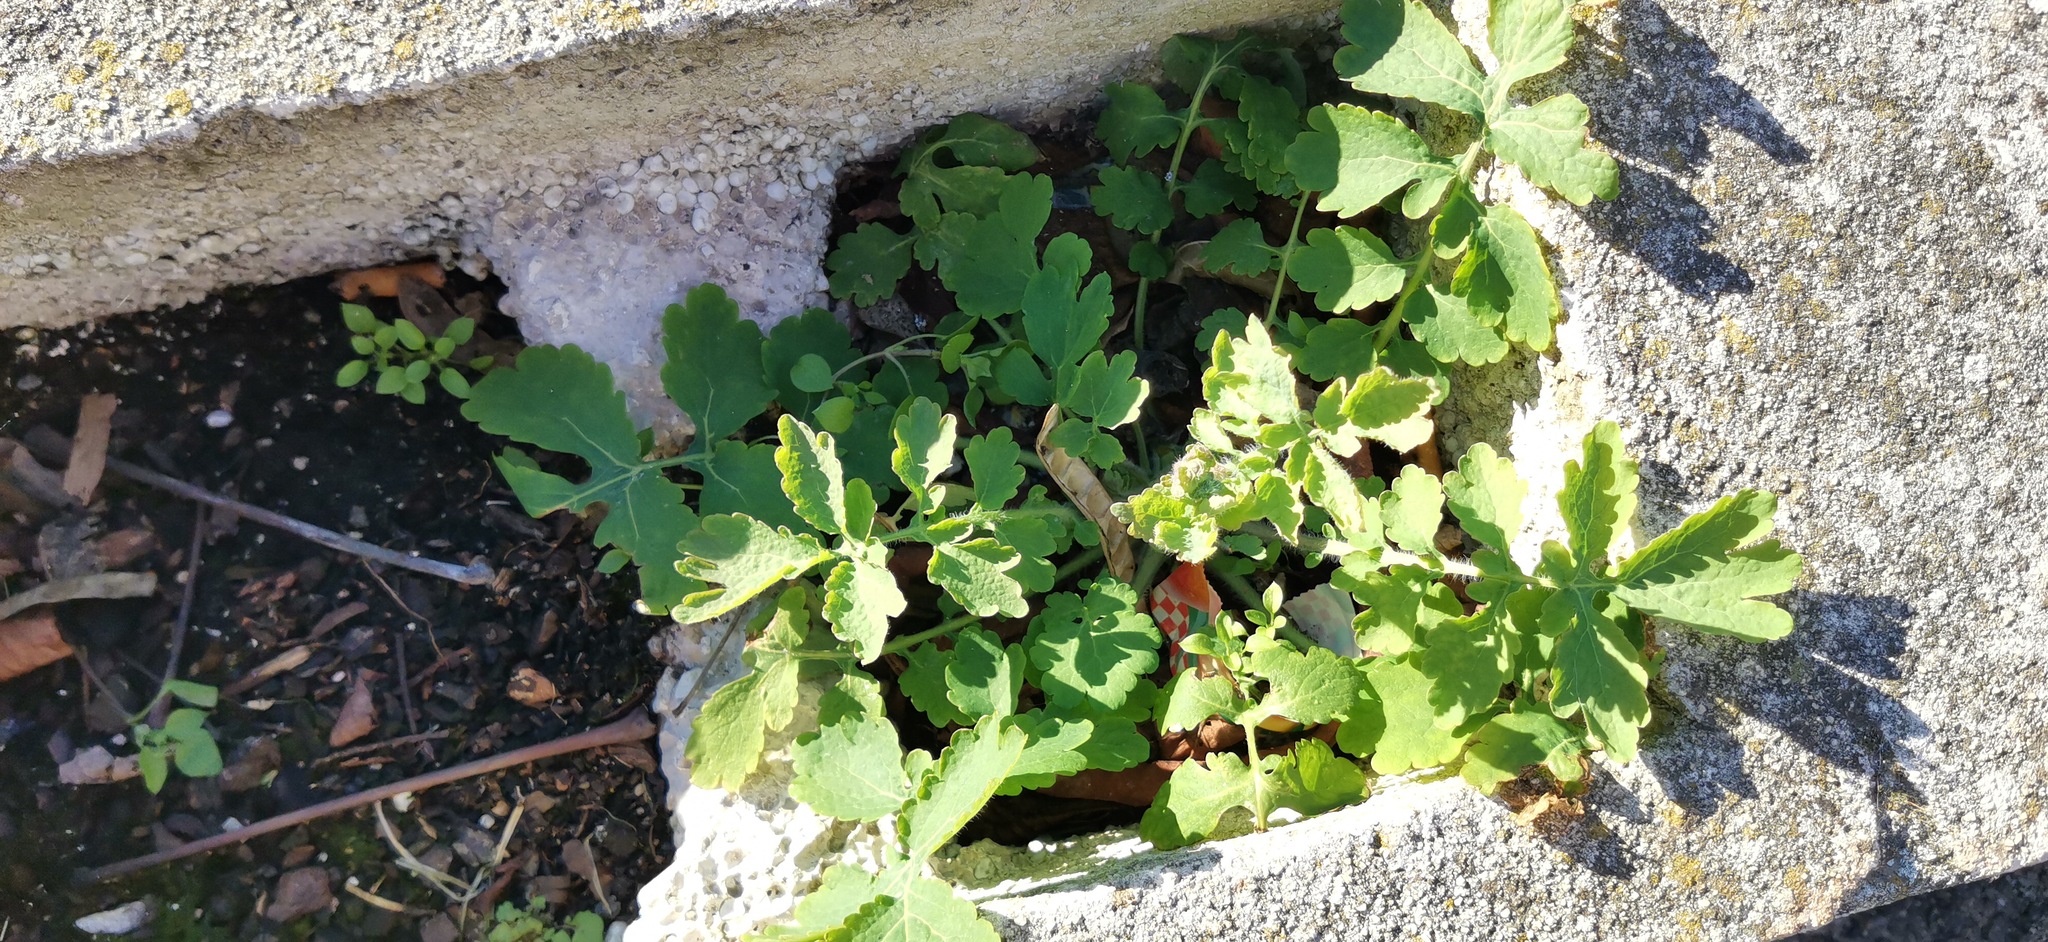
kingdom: Plantae
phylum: Tracheophyta
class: Magnoliopsida
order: Ranunculales
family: Papaveraceae
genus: Chelidonium
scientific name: Chelidonium majus
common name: Greater celandine
